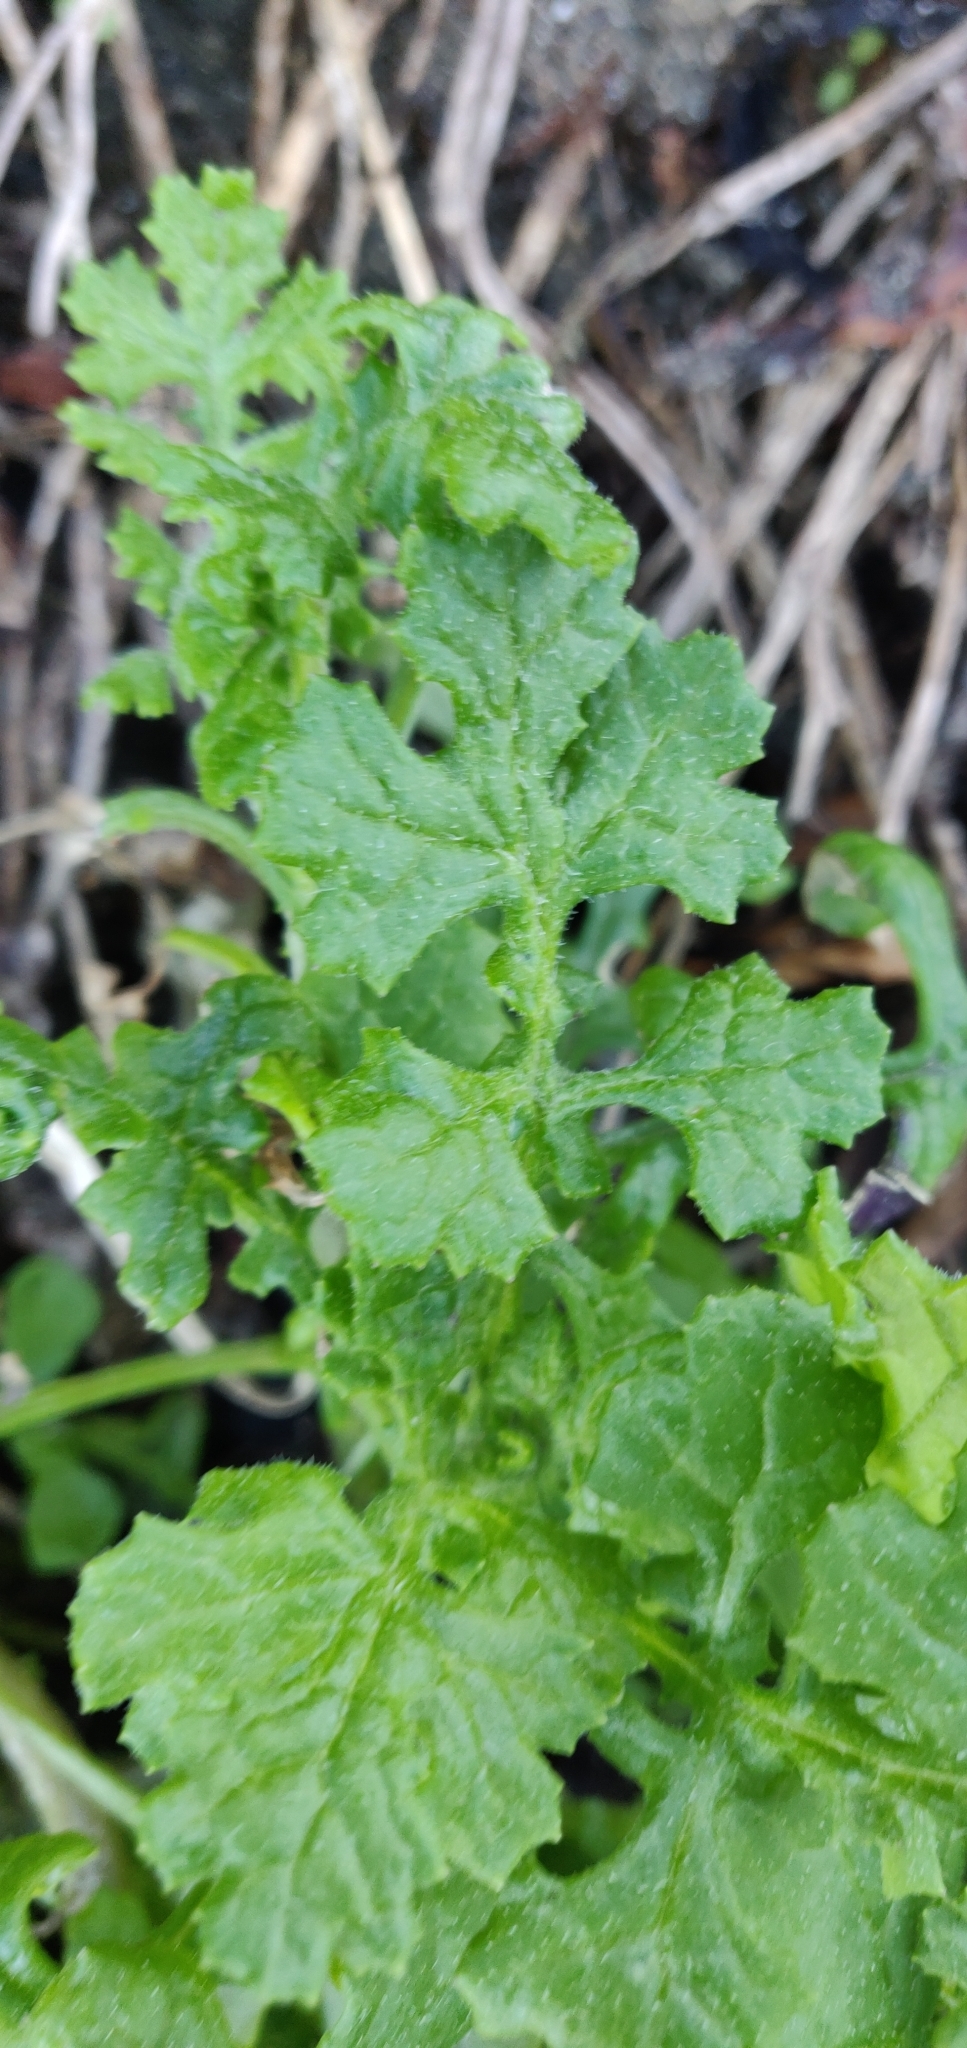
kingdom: Plantae
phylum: Tracheophyta
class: Magnoliopsida
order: Asterales
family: Asteraceae
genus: Senecio
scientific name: Senecio elegans
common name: Purple groundsel
